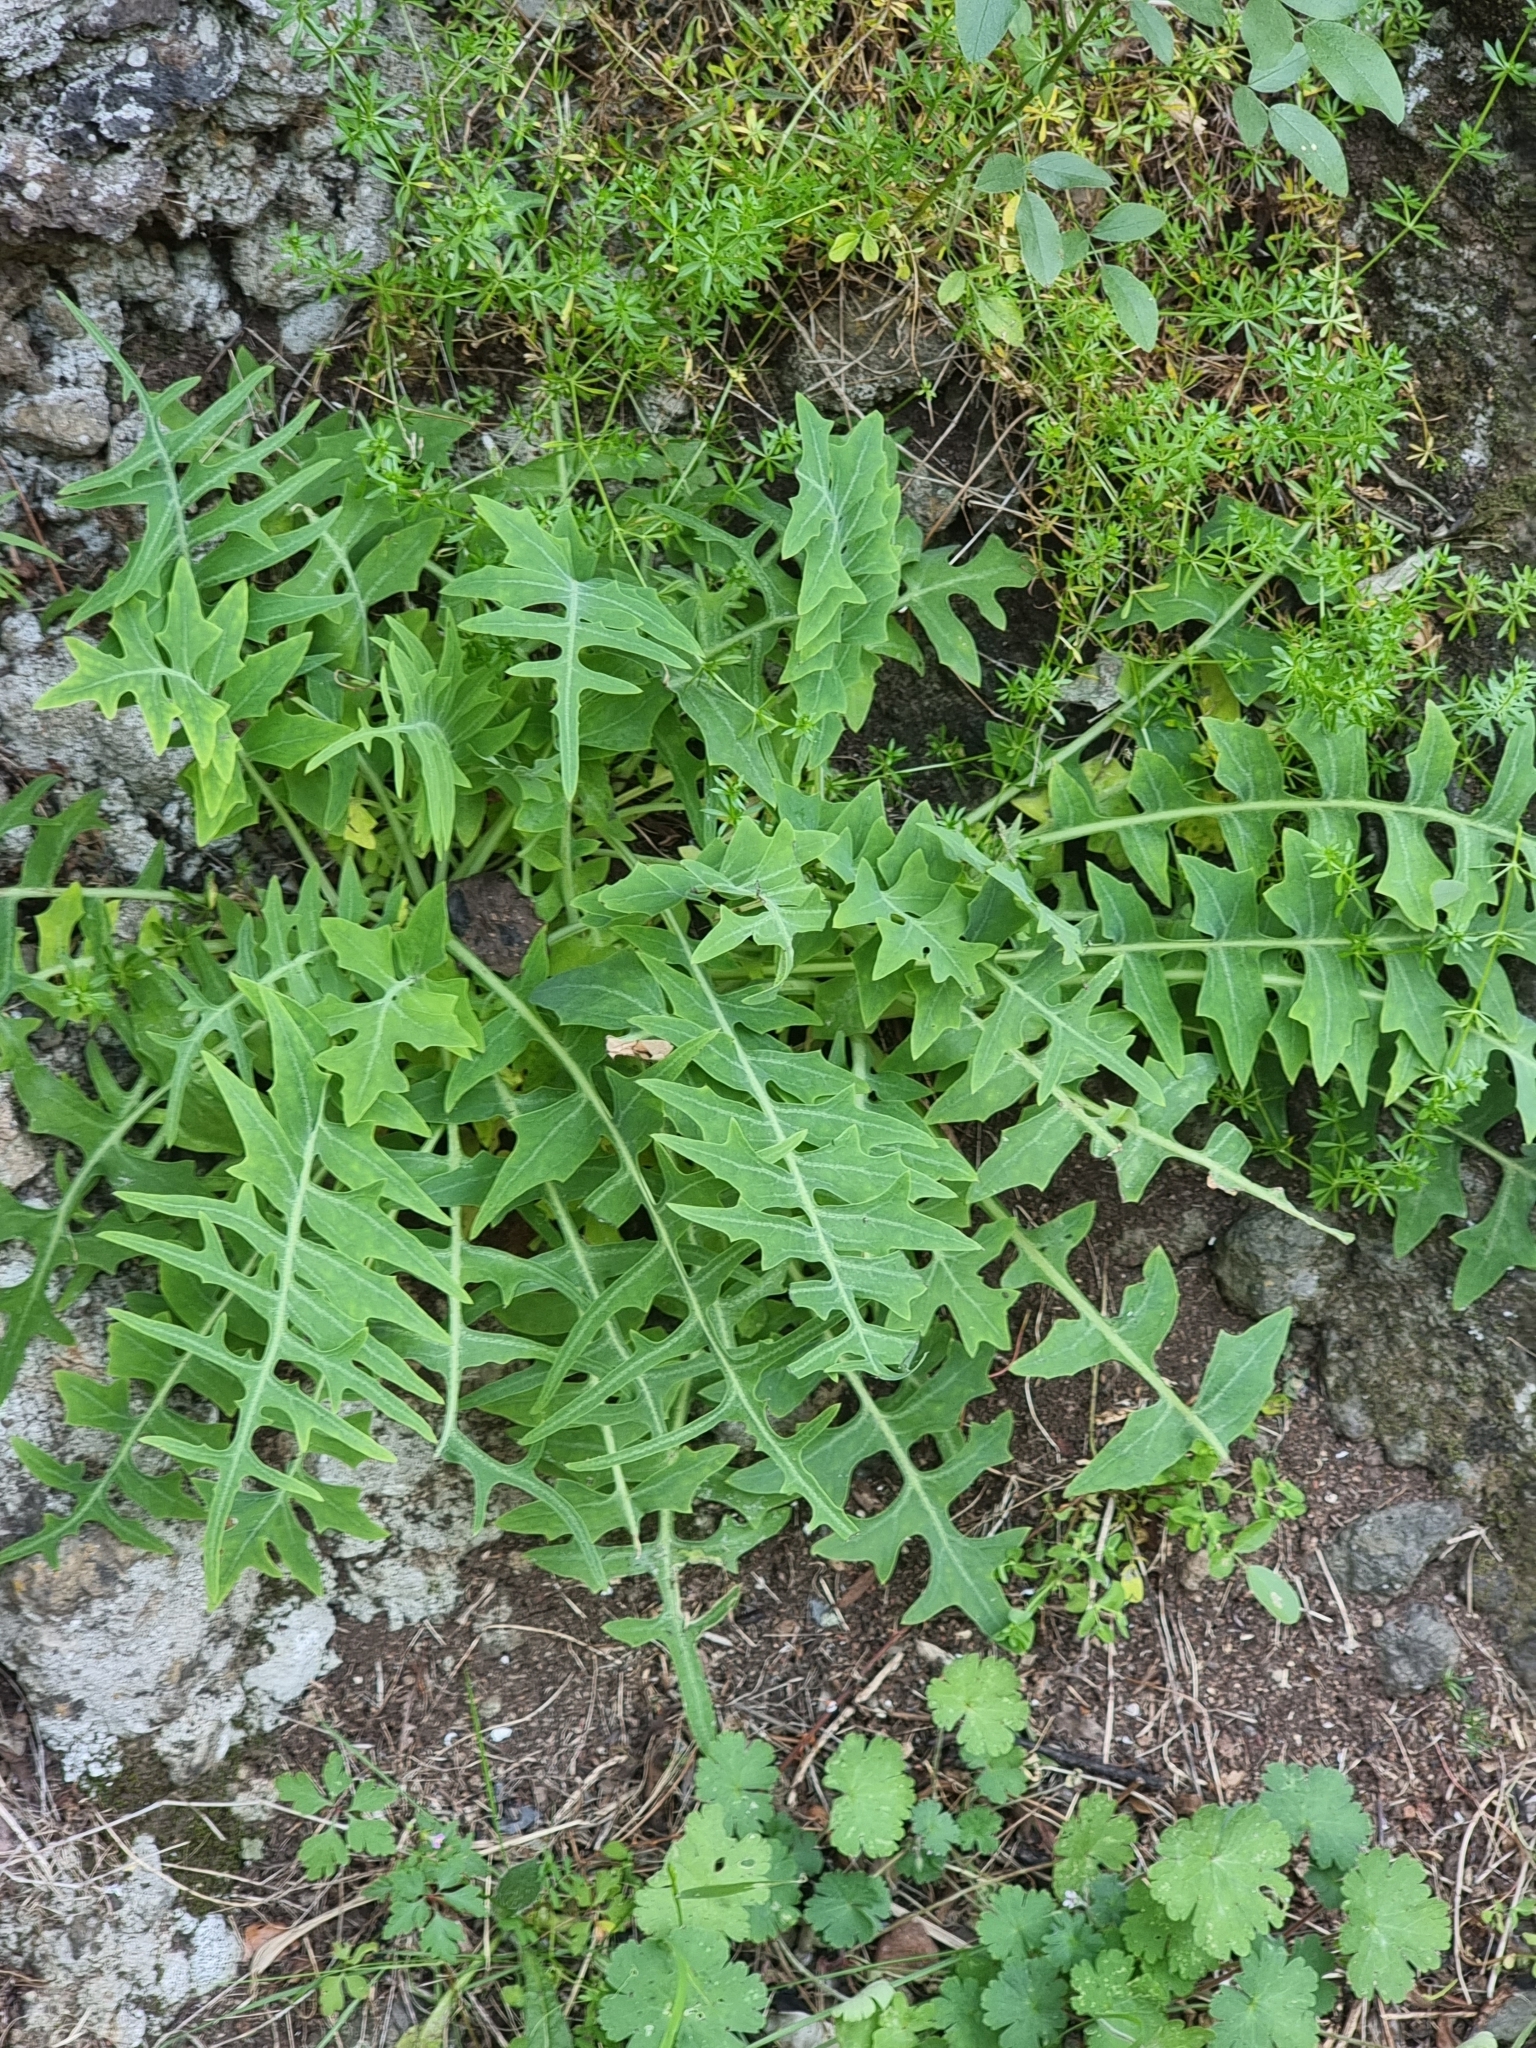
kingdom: Plantae
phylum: Tracheophyta
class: Magnoliopsida
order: Asterales
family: Asteraceae
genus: Sonchus
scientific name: Sonchus ustulatus
